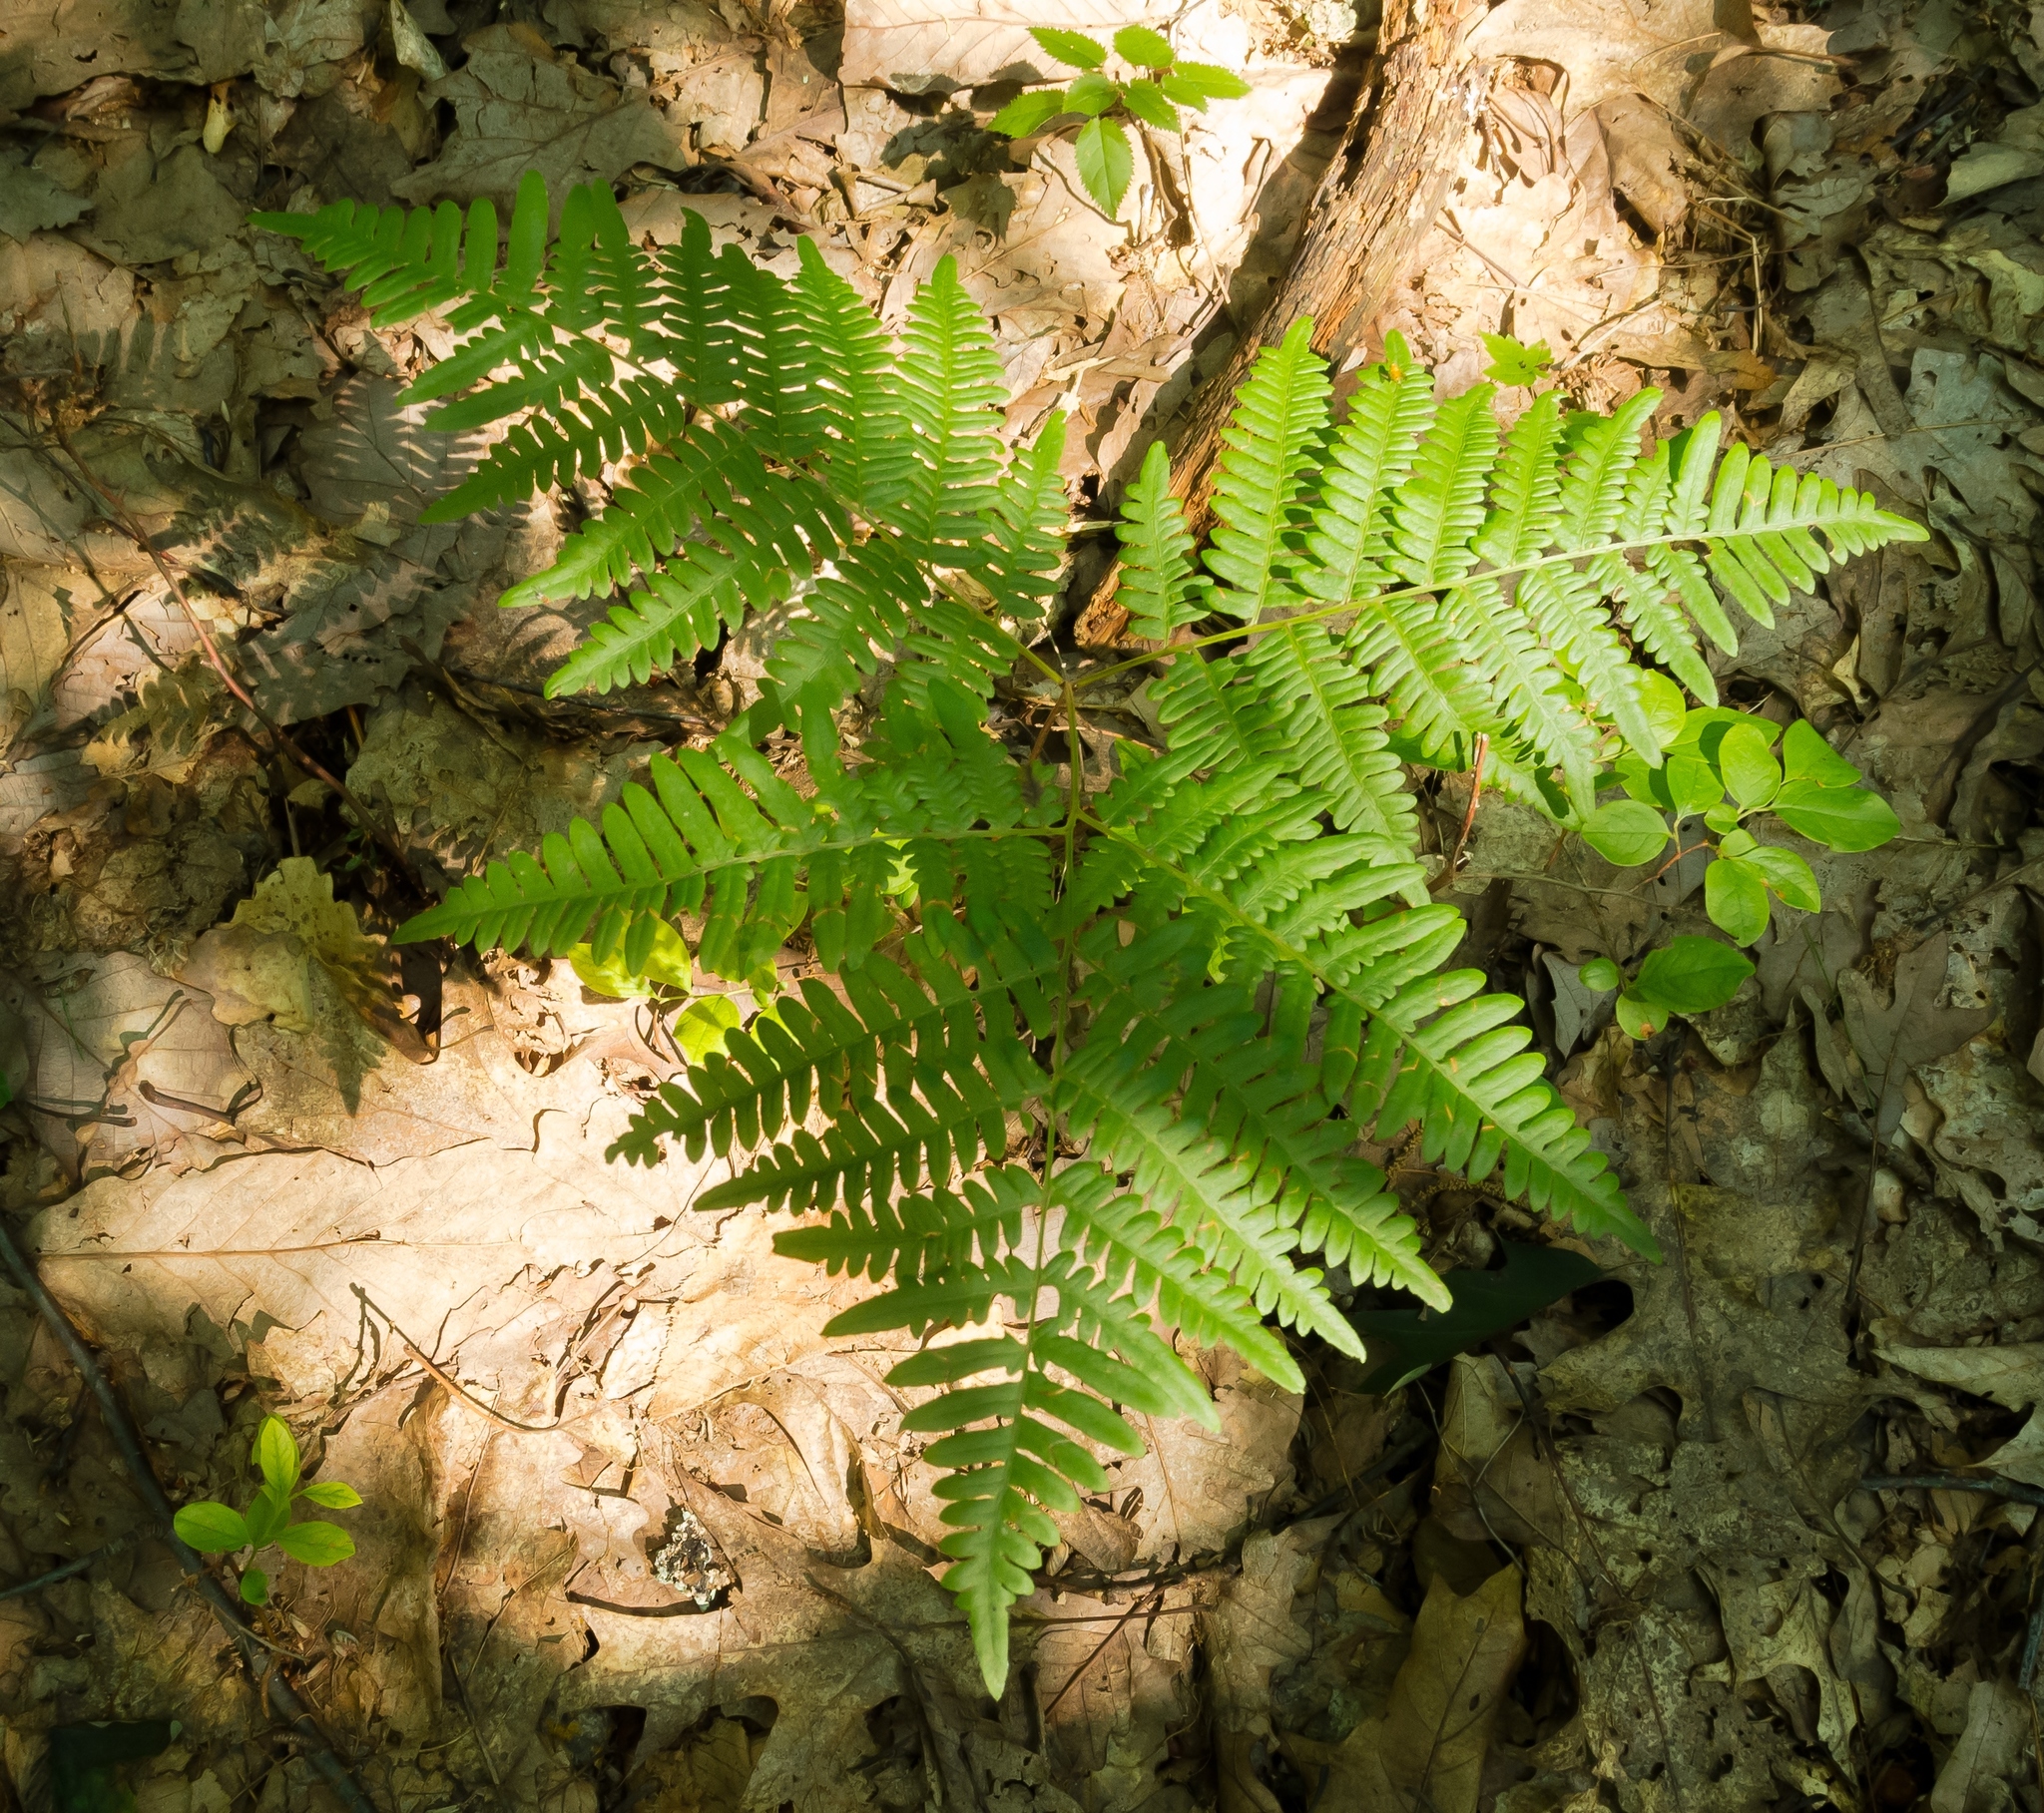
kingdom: Plantae
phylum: Tracheophyta
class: Polypodiopsida
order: Polypodiales
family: Dennstaedtiaceae
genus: Pteridium
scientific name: Pteridium aquilinum
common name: Bracken
